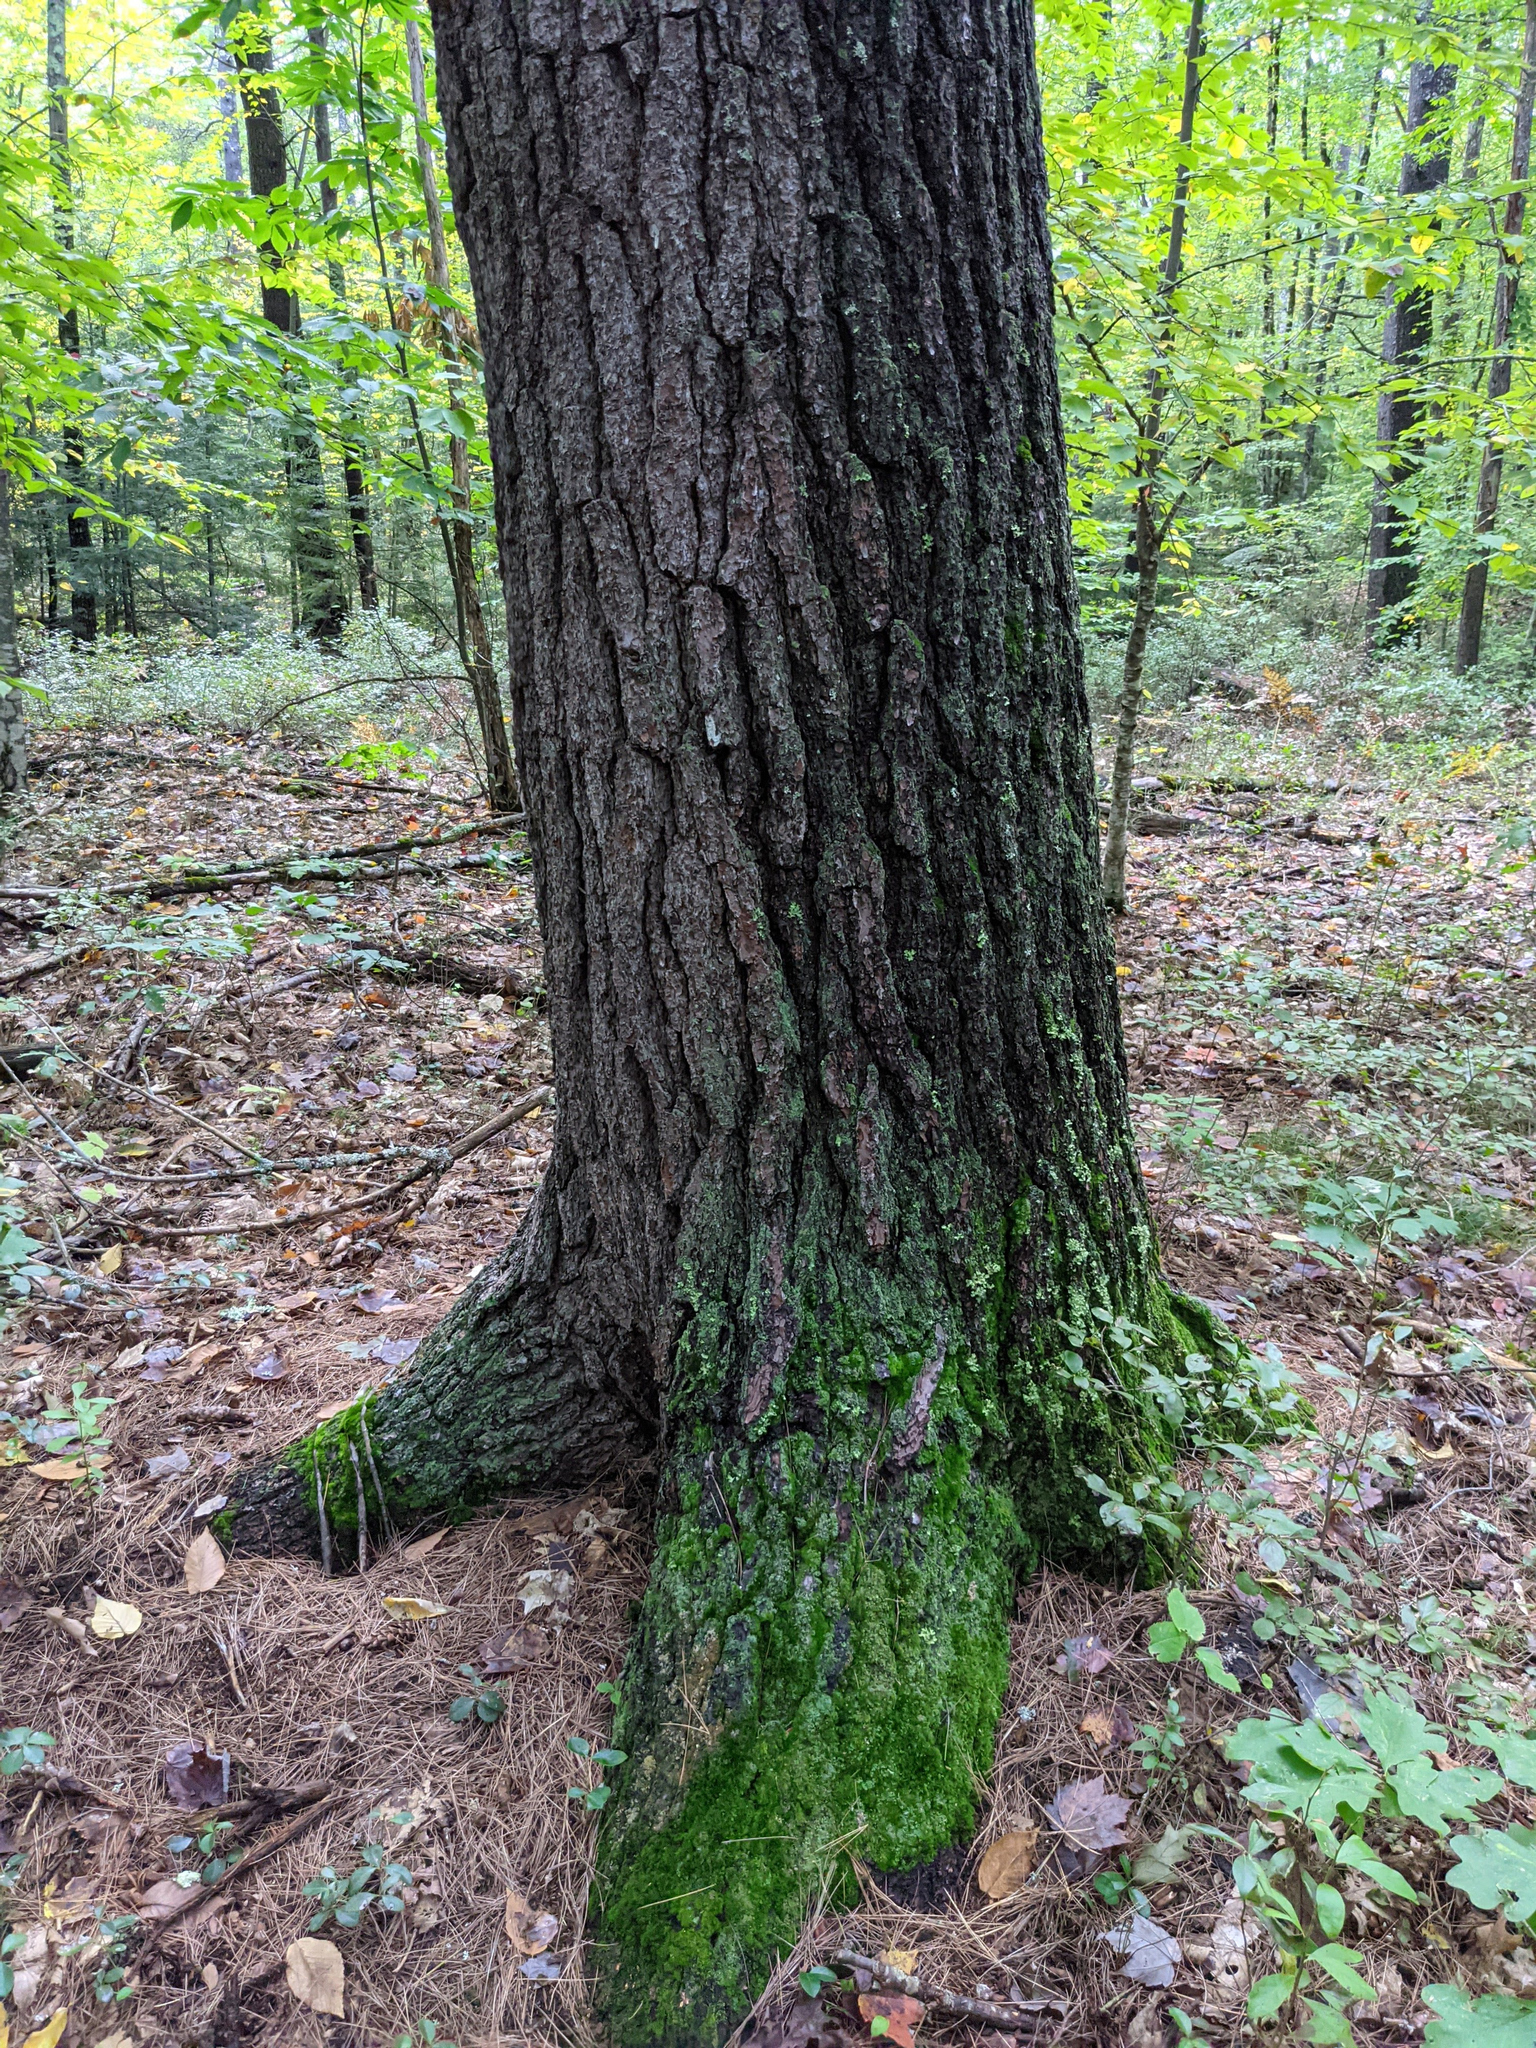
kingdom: Plantae
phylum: Tracheophyta
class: Pinopsida
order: Pinales
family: Pinaceae
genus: Pinus
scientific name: Pinus strobus
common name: Weymouth pine
